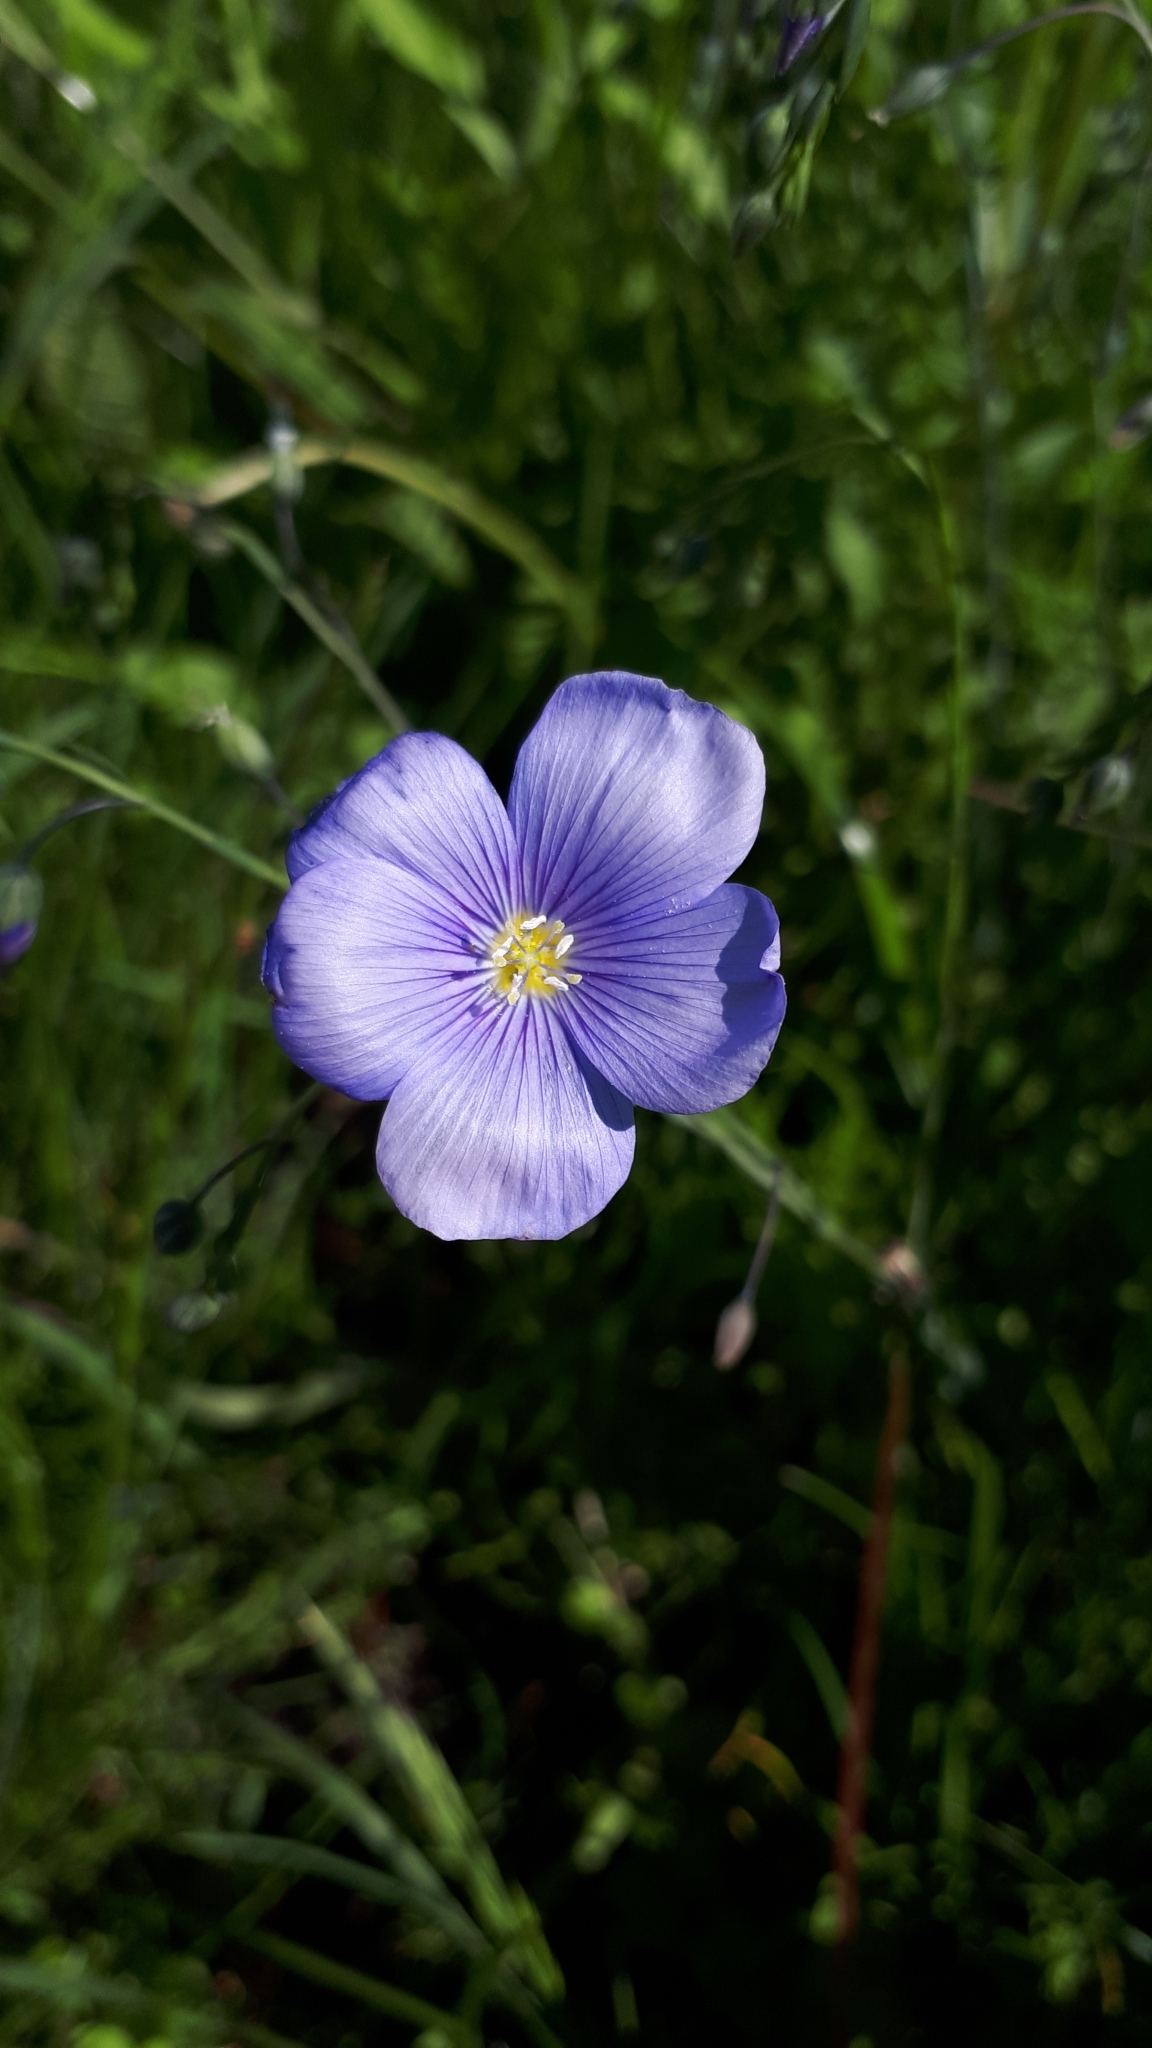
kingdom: Plantae
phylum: Tracheophyta
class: Magnoliopsida
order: Malpighiales
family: Linaceae
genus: Linum
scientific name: Linum perenne
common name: Blue flax
